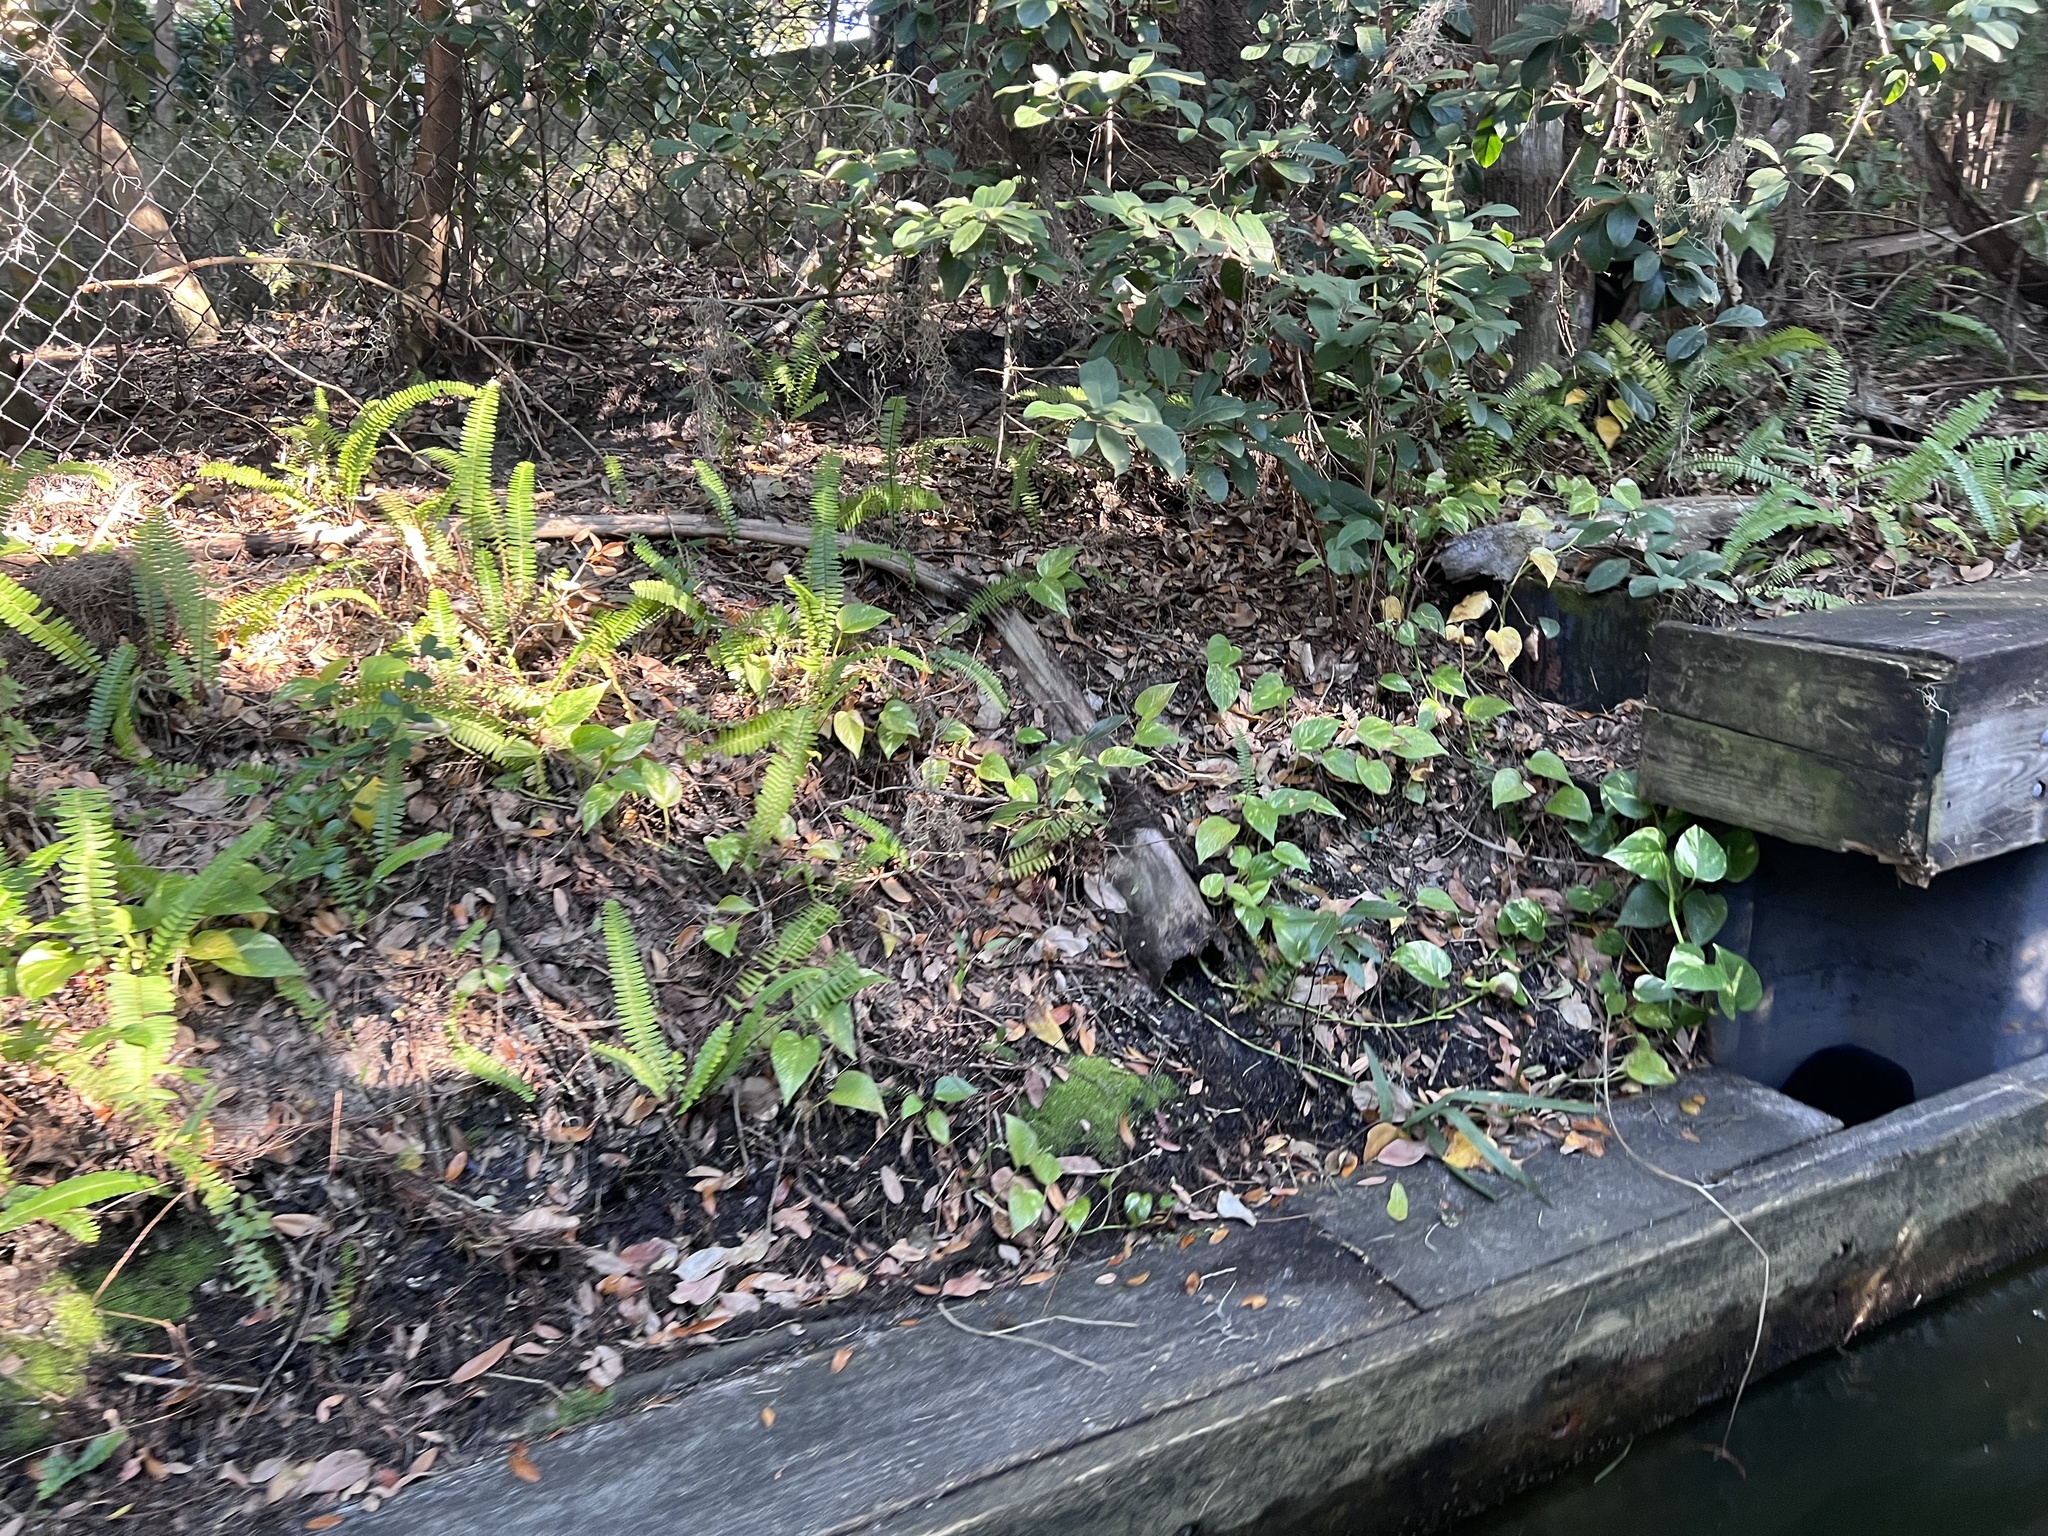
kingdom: Plantae
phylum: Tracheophyta
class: Liliopsida
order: Alismatales
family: Araceae
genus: Epipremnum
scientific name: Epipremnum aureum
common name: Golden hunter's-robe
